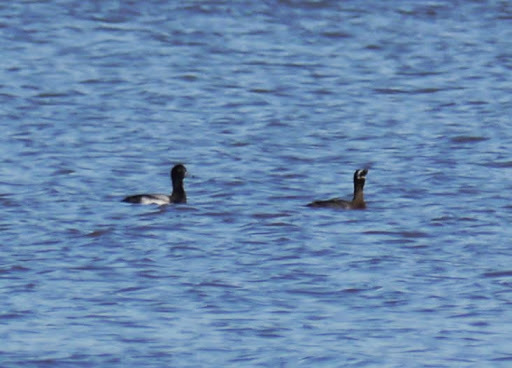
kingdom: Animalia
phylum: Chordata
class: Aves
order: Anseriformes
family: Anatidae
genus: Aythya
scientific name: Aythya marila
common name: Greater scaup
